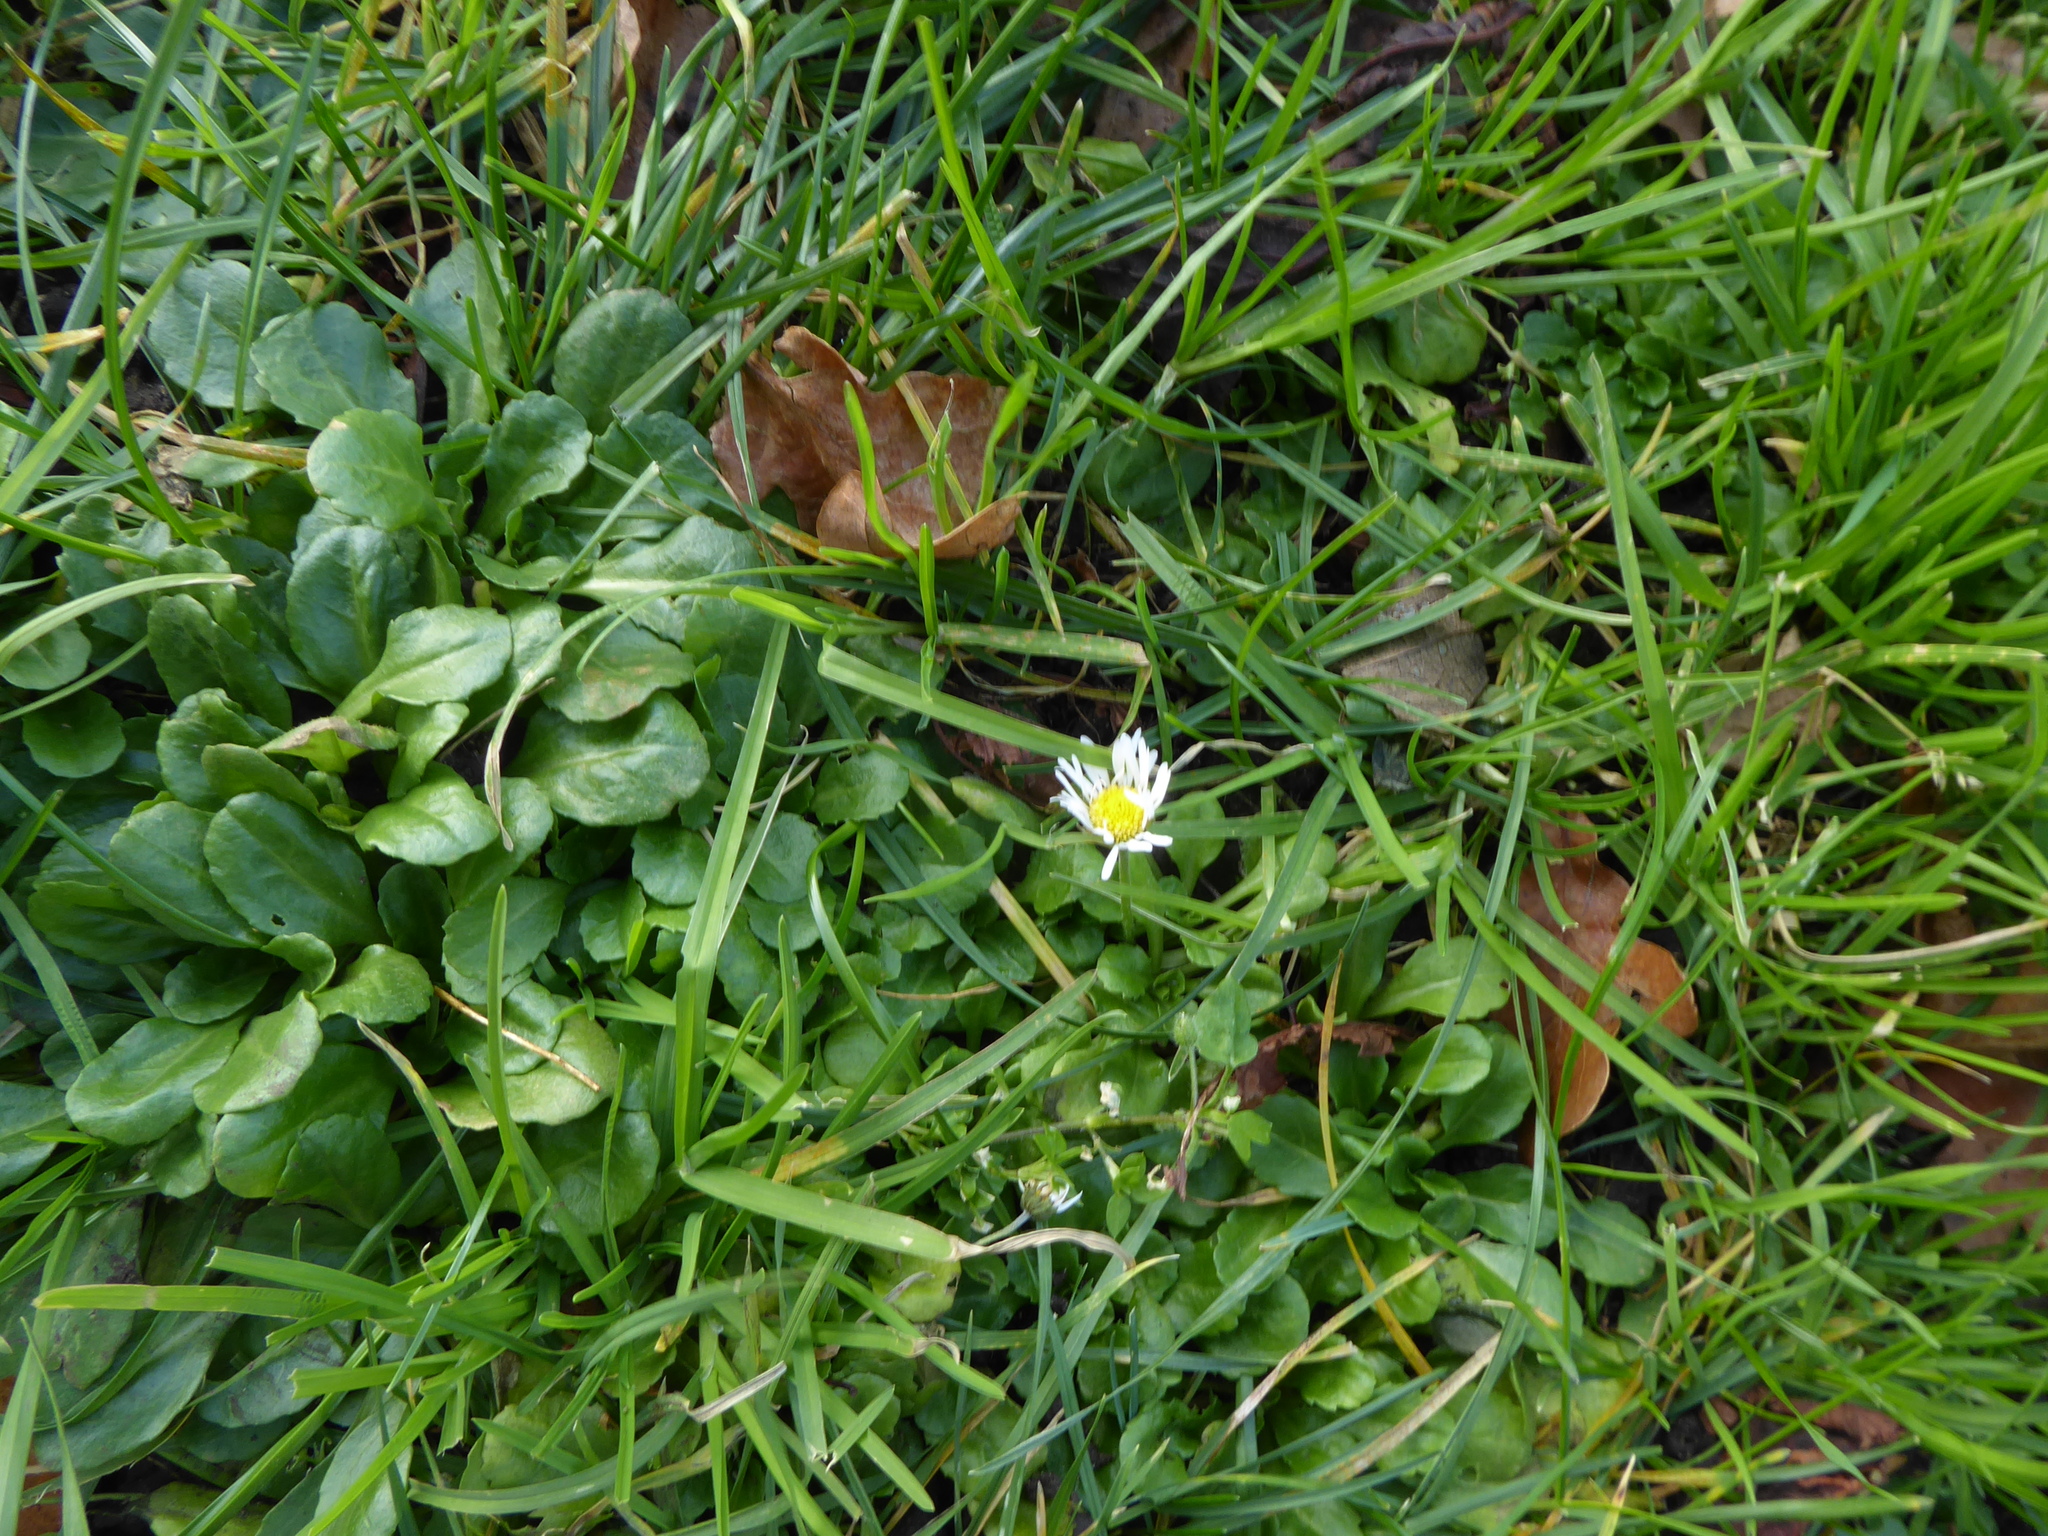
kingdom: Plantae
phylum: Tracheophyta
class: Magnoliopsida
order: Asterales
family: Asteraceae
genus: Bellis
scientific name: Bellis perennis
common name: Lawndaisy
